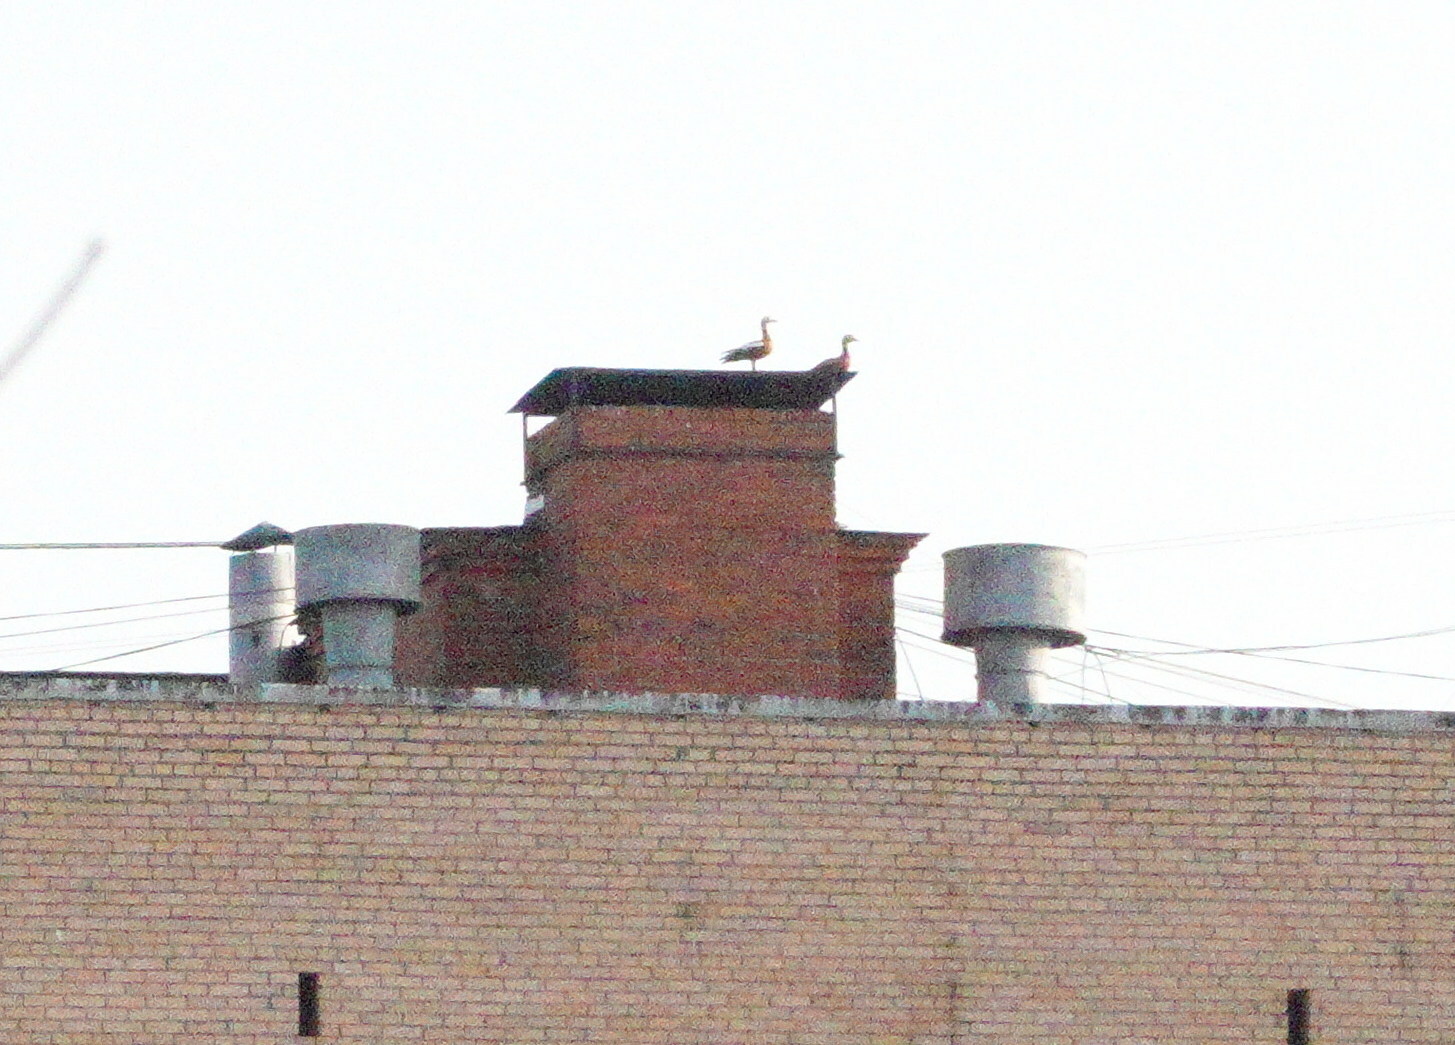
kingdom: Animalia
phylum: Chordata
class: Aves
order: Anseriformes
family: Anatidae
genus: Tadorna
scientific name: Tadorna ferruginea
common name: Ruddy shelduck
